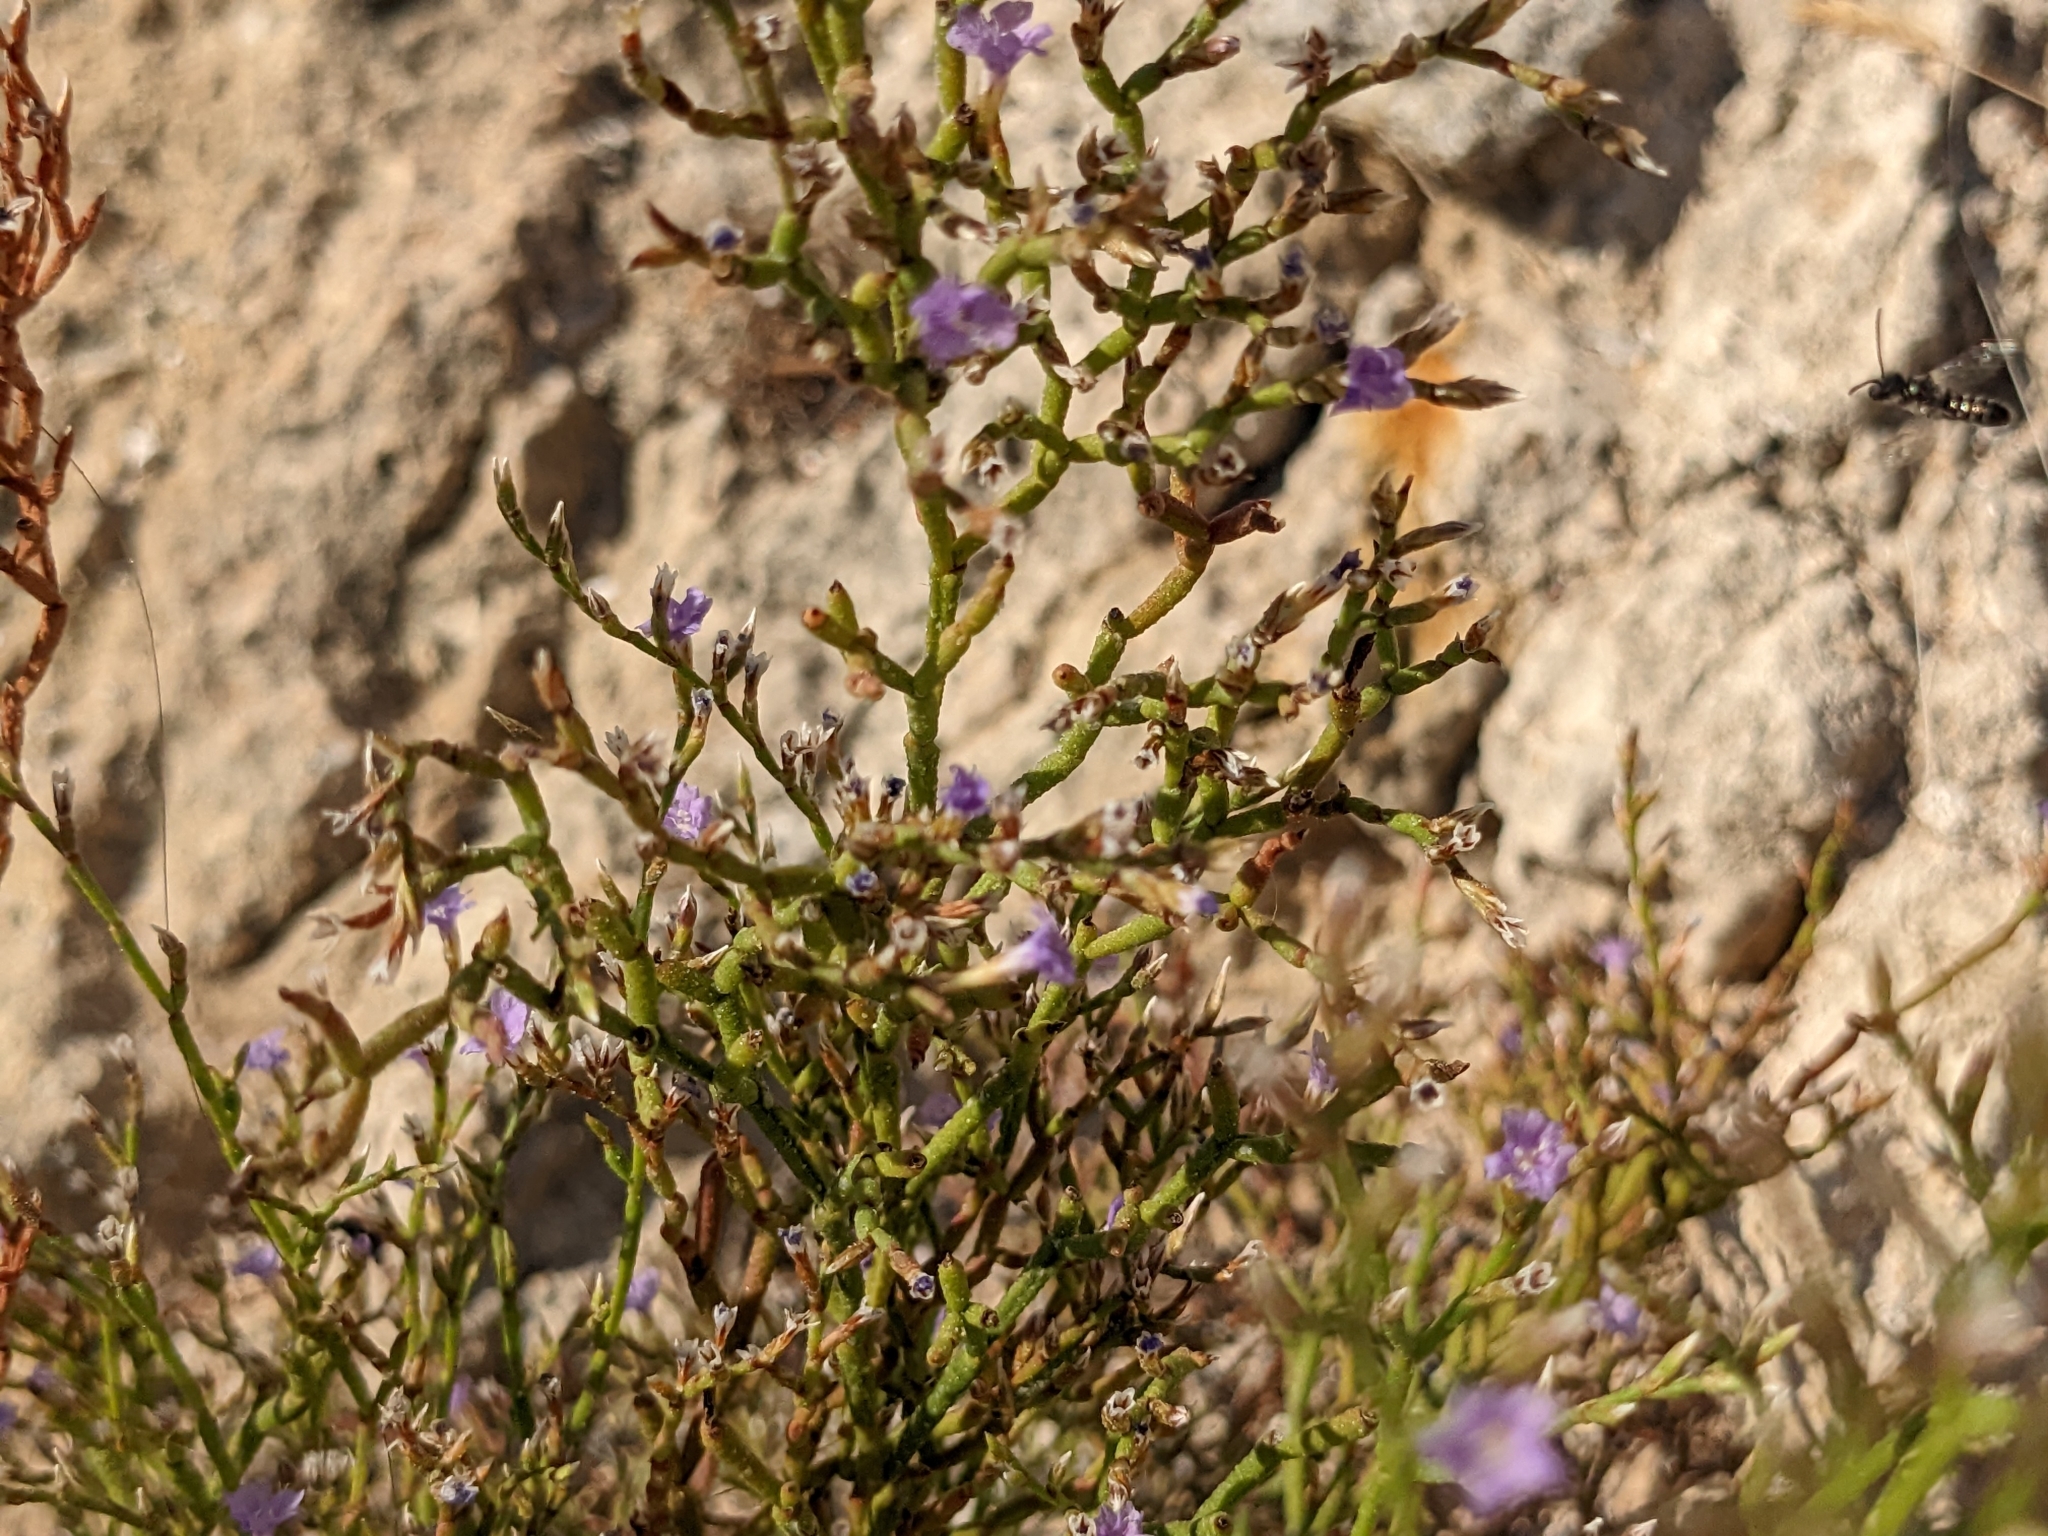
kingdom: Plantae
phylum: Tracheophyta
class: Magnoliopsida
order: Caryophyllales
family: Plumbaginaceae
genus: Limonium
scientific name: Limonium phitosianum
